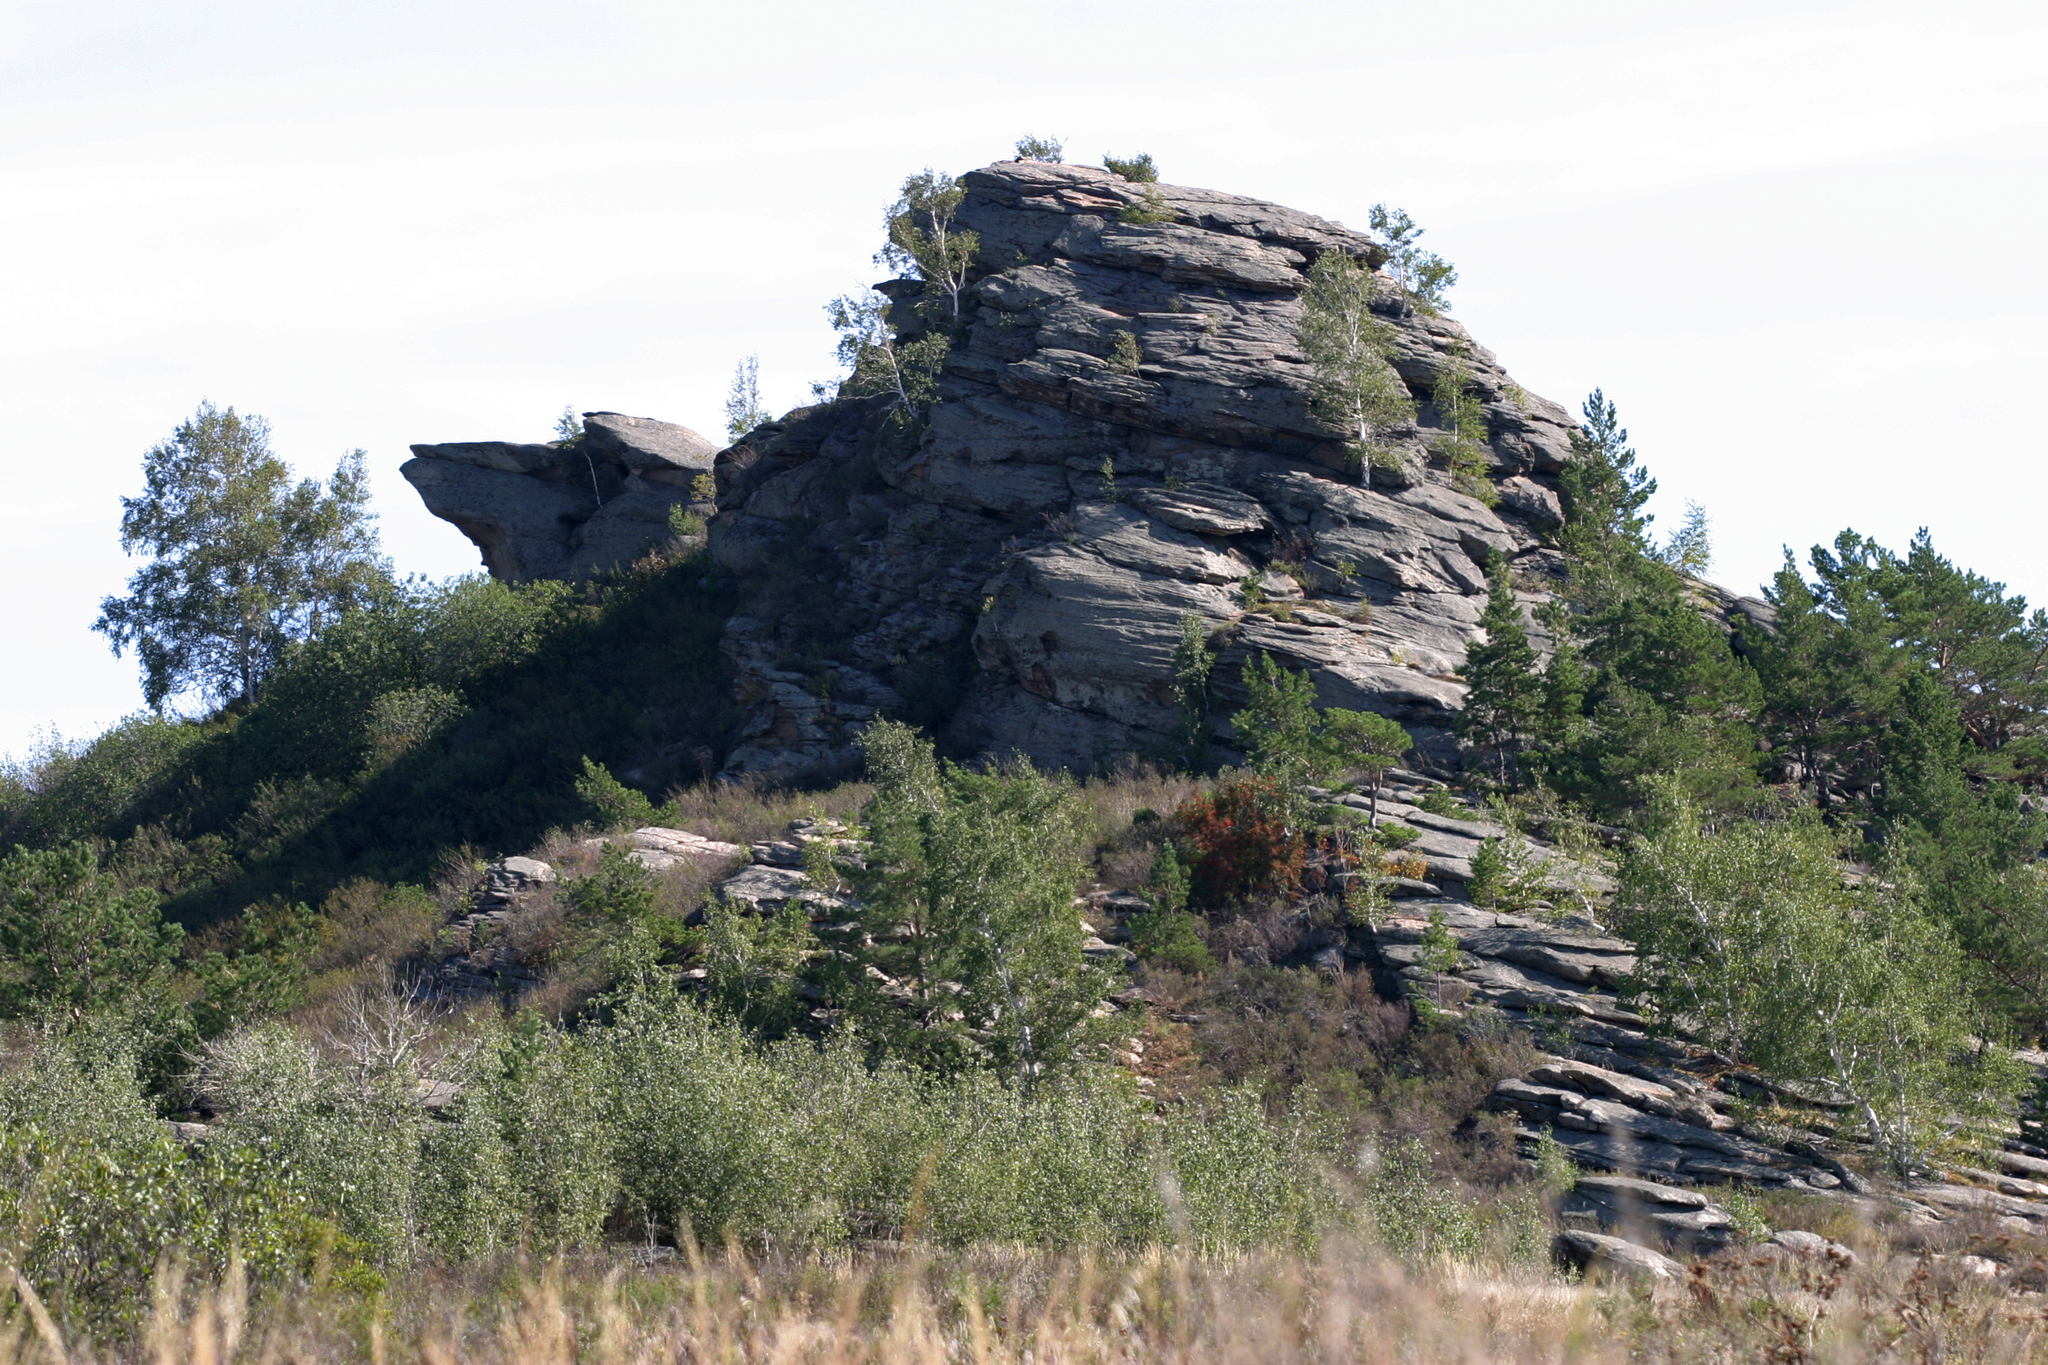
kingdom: Plantae
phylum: Tracheophyta
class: Magnoliopsida
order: Fagales
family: Betulaceae
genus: Betula
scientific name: Betula pendula
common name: Silver birch
